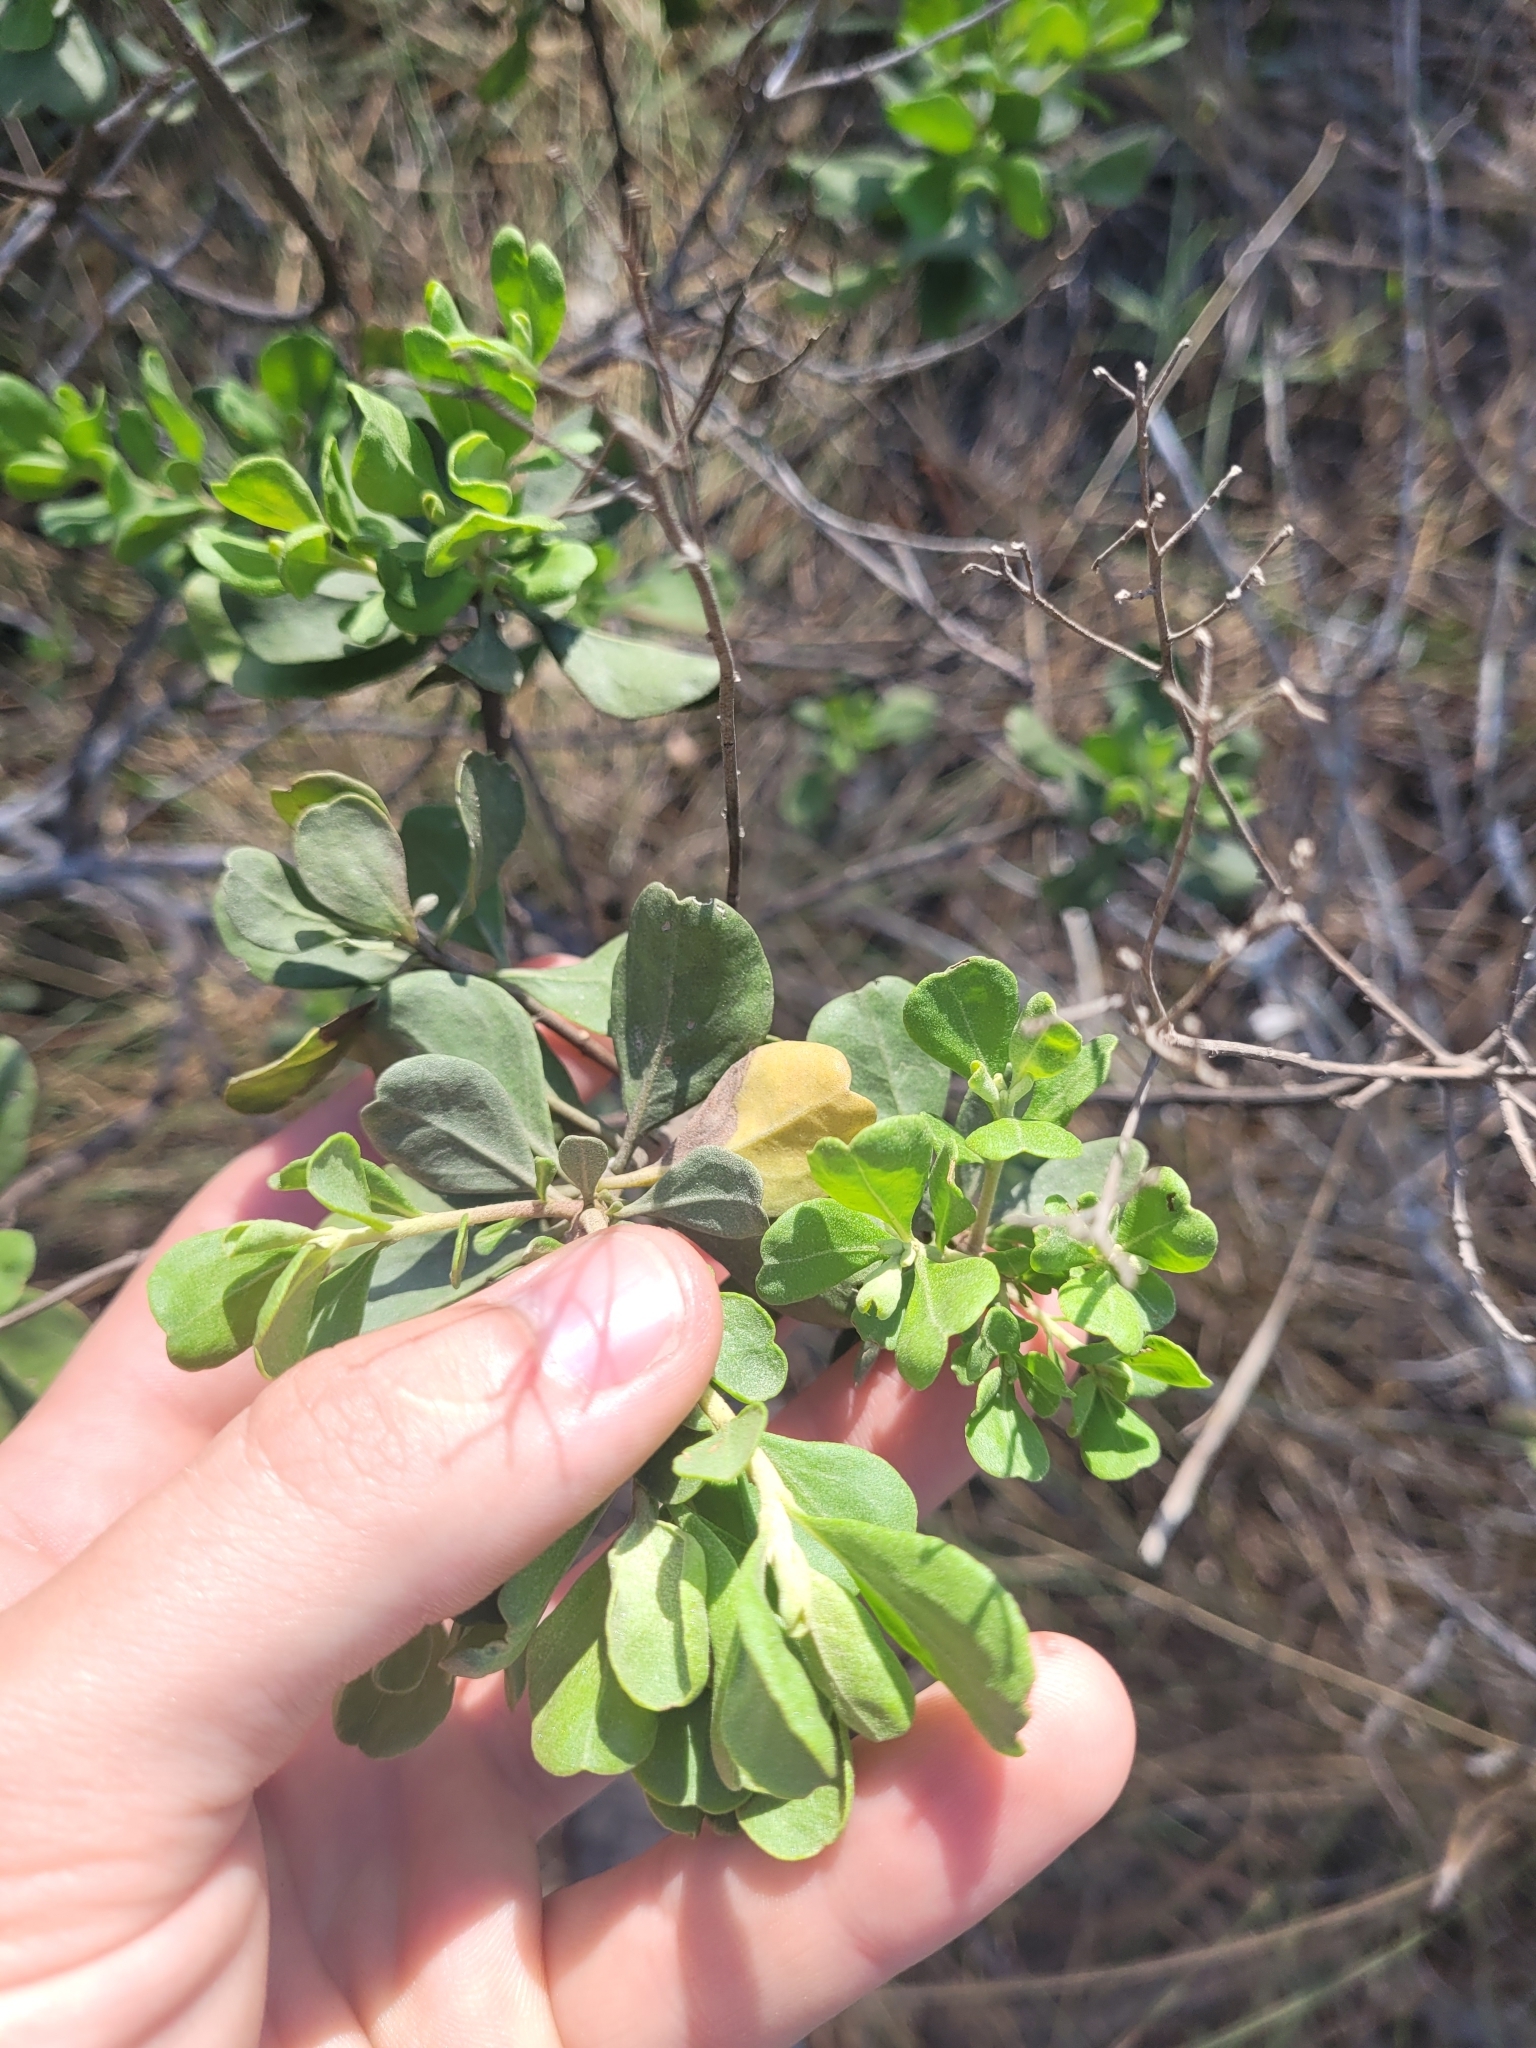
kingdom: Plantae
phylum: Tracheophyta
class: Magnoliopsida
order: Asterales
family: Asteraceae
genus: Garberia
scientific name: Garberia heterophylla
